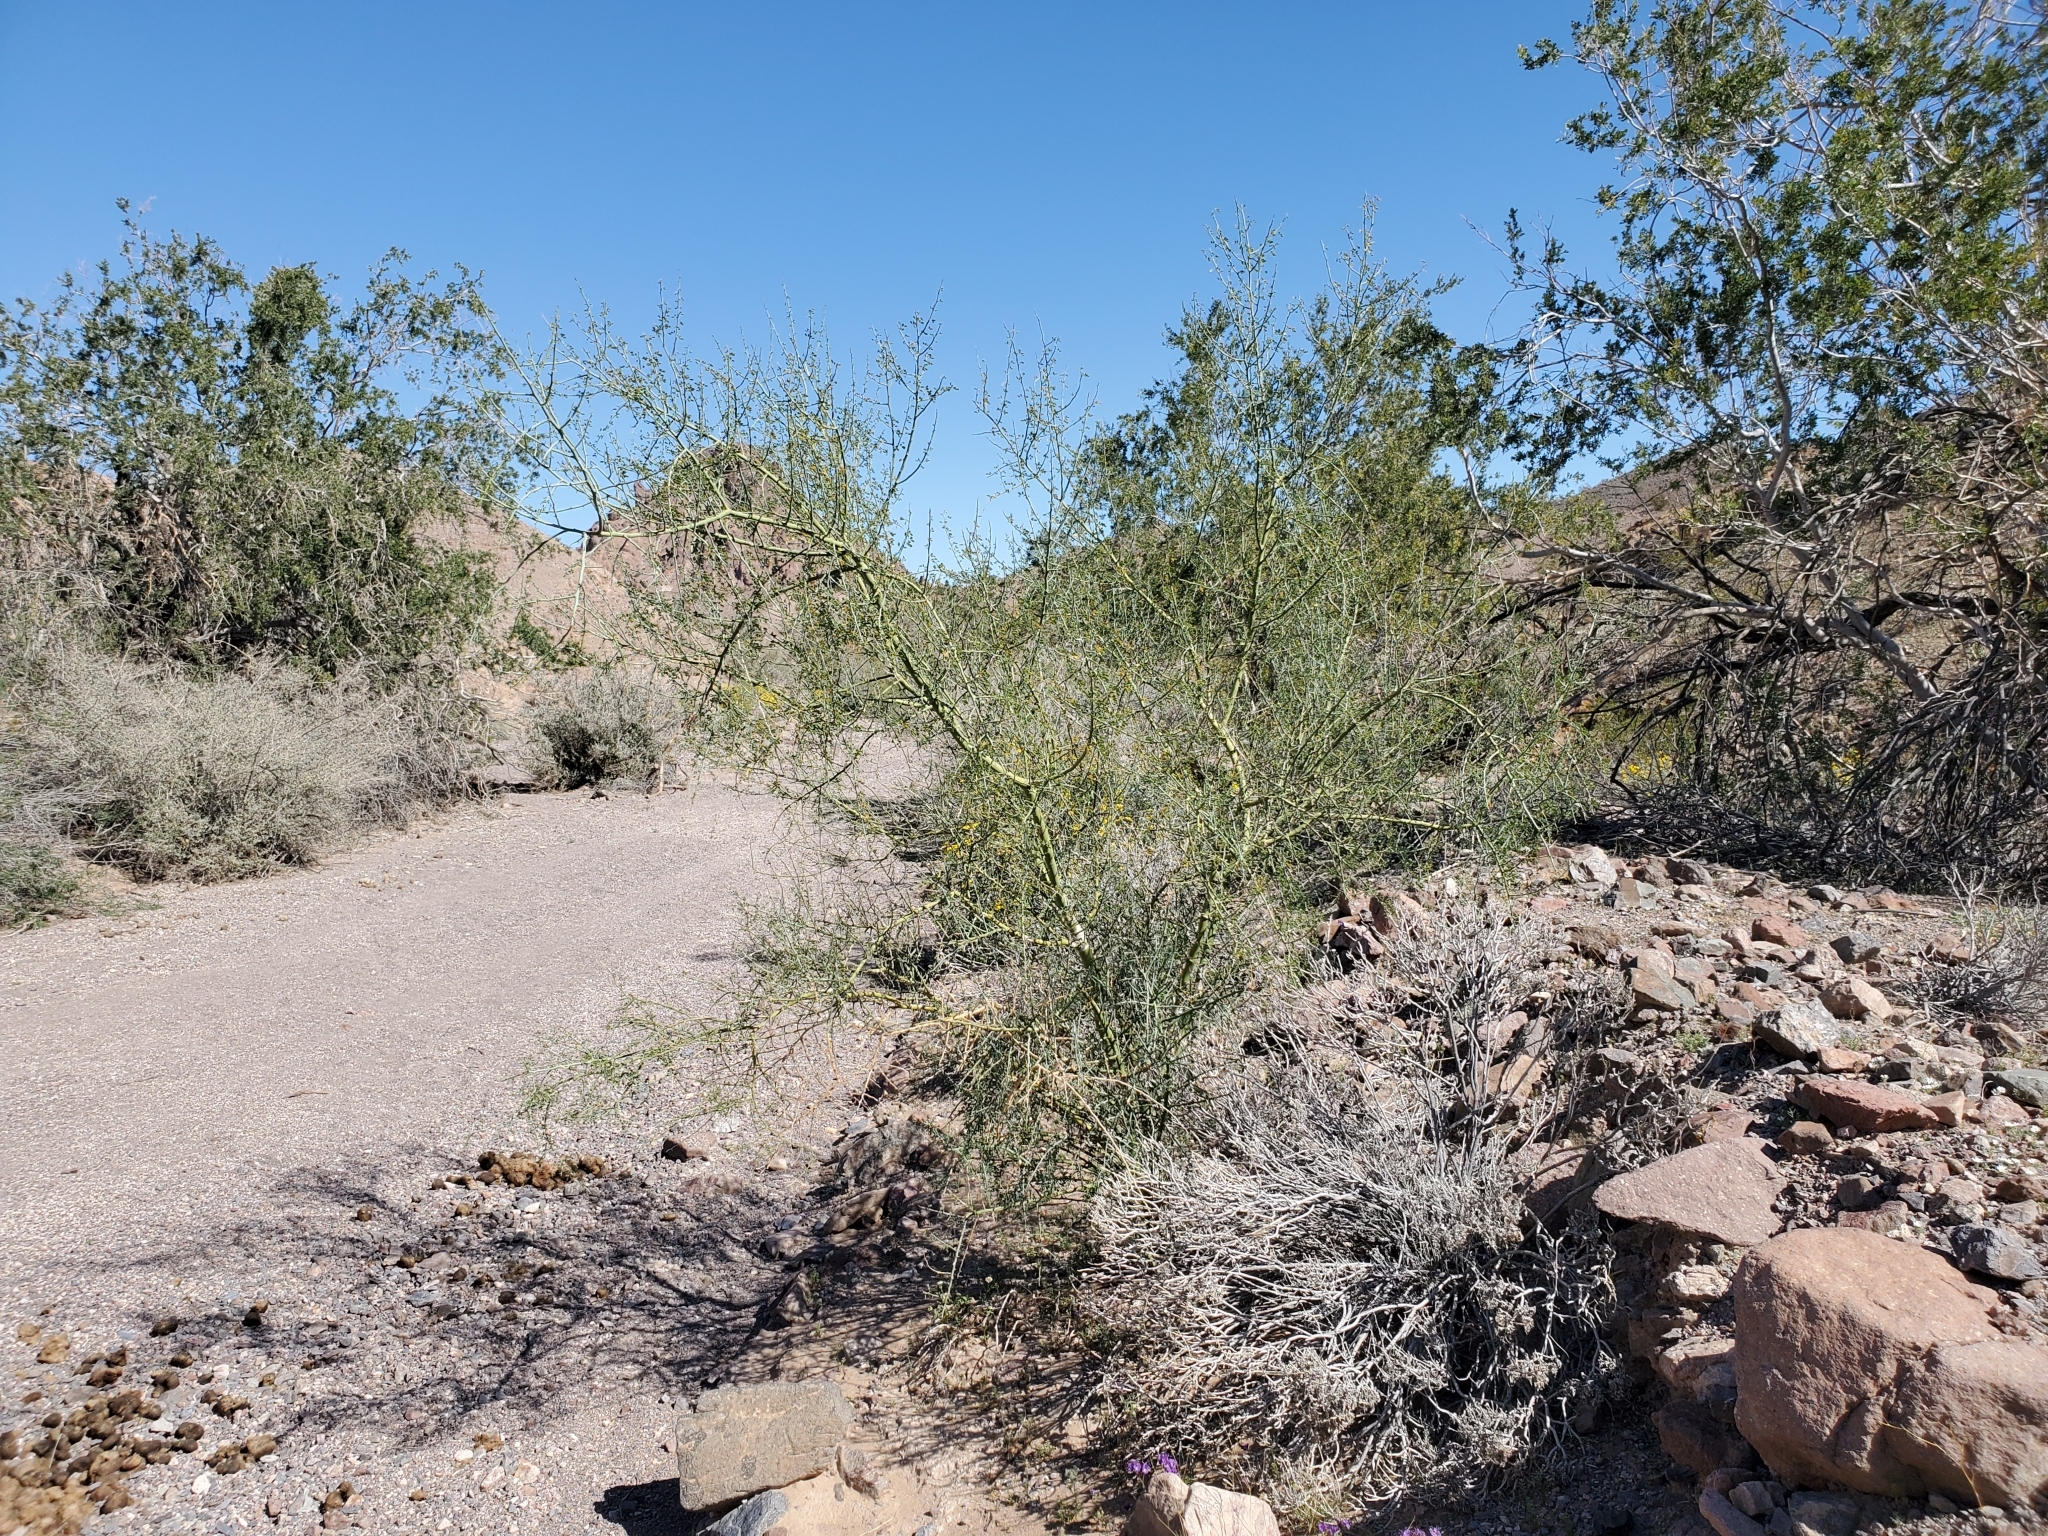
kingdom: Plantae
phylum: Tracheophyta
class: Magnoliopsida
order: Fabales
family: Fabaceae
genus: Parkinsonia
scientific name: Parkinsonia florida
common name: Blue paloverde
